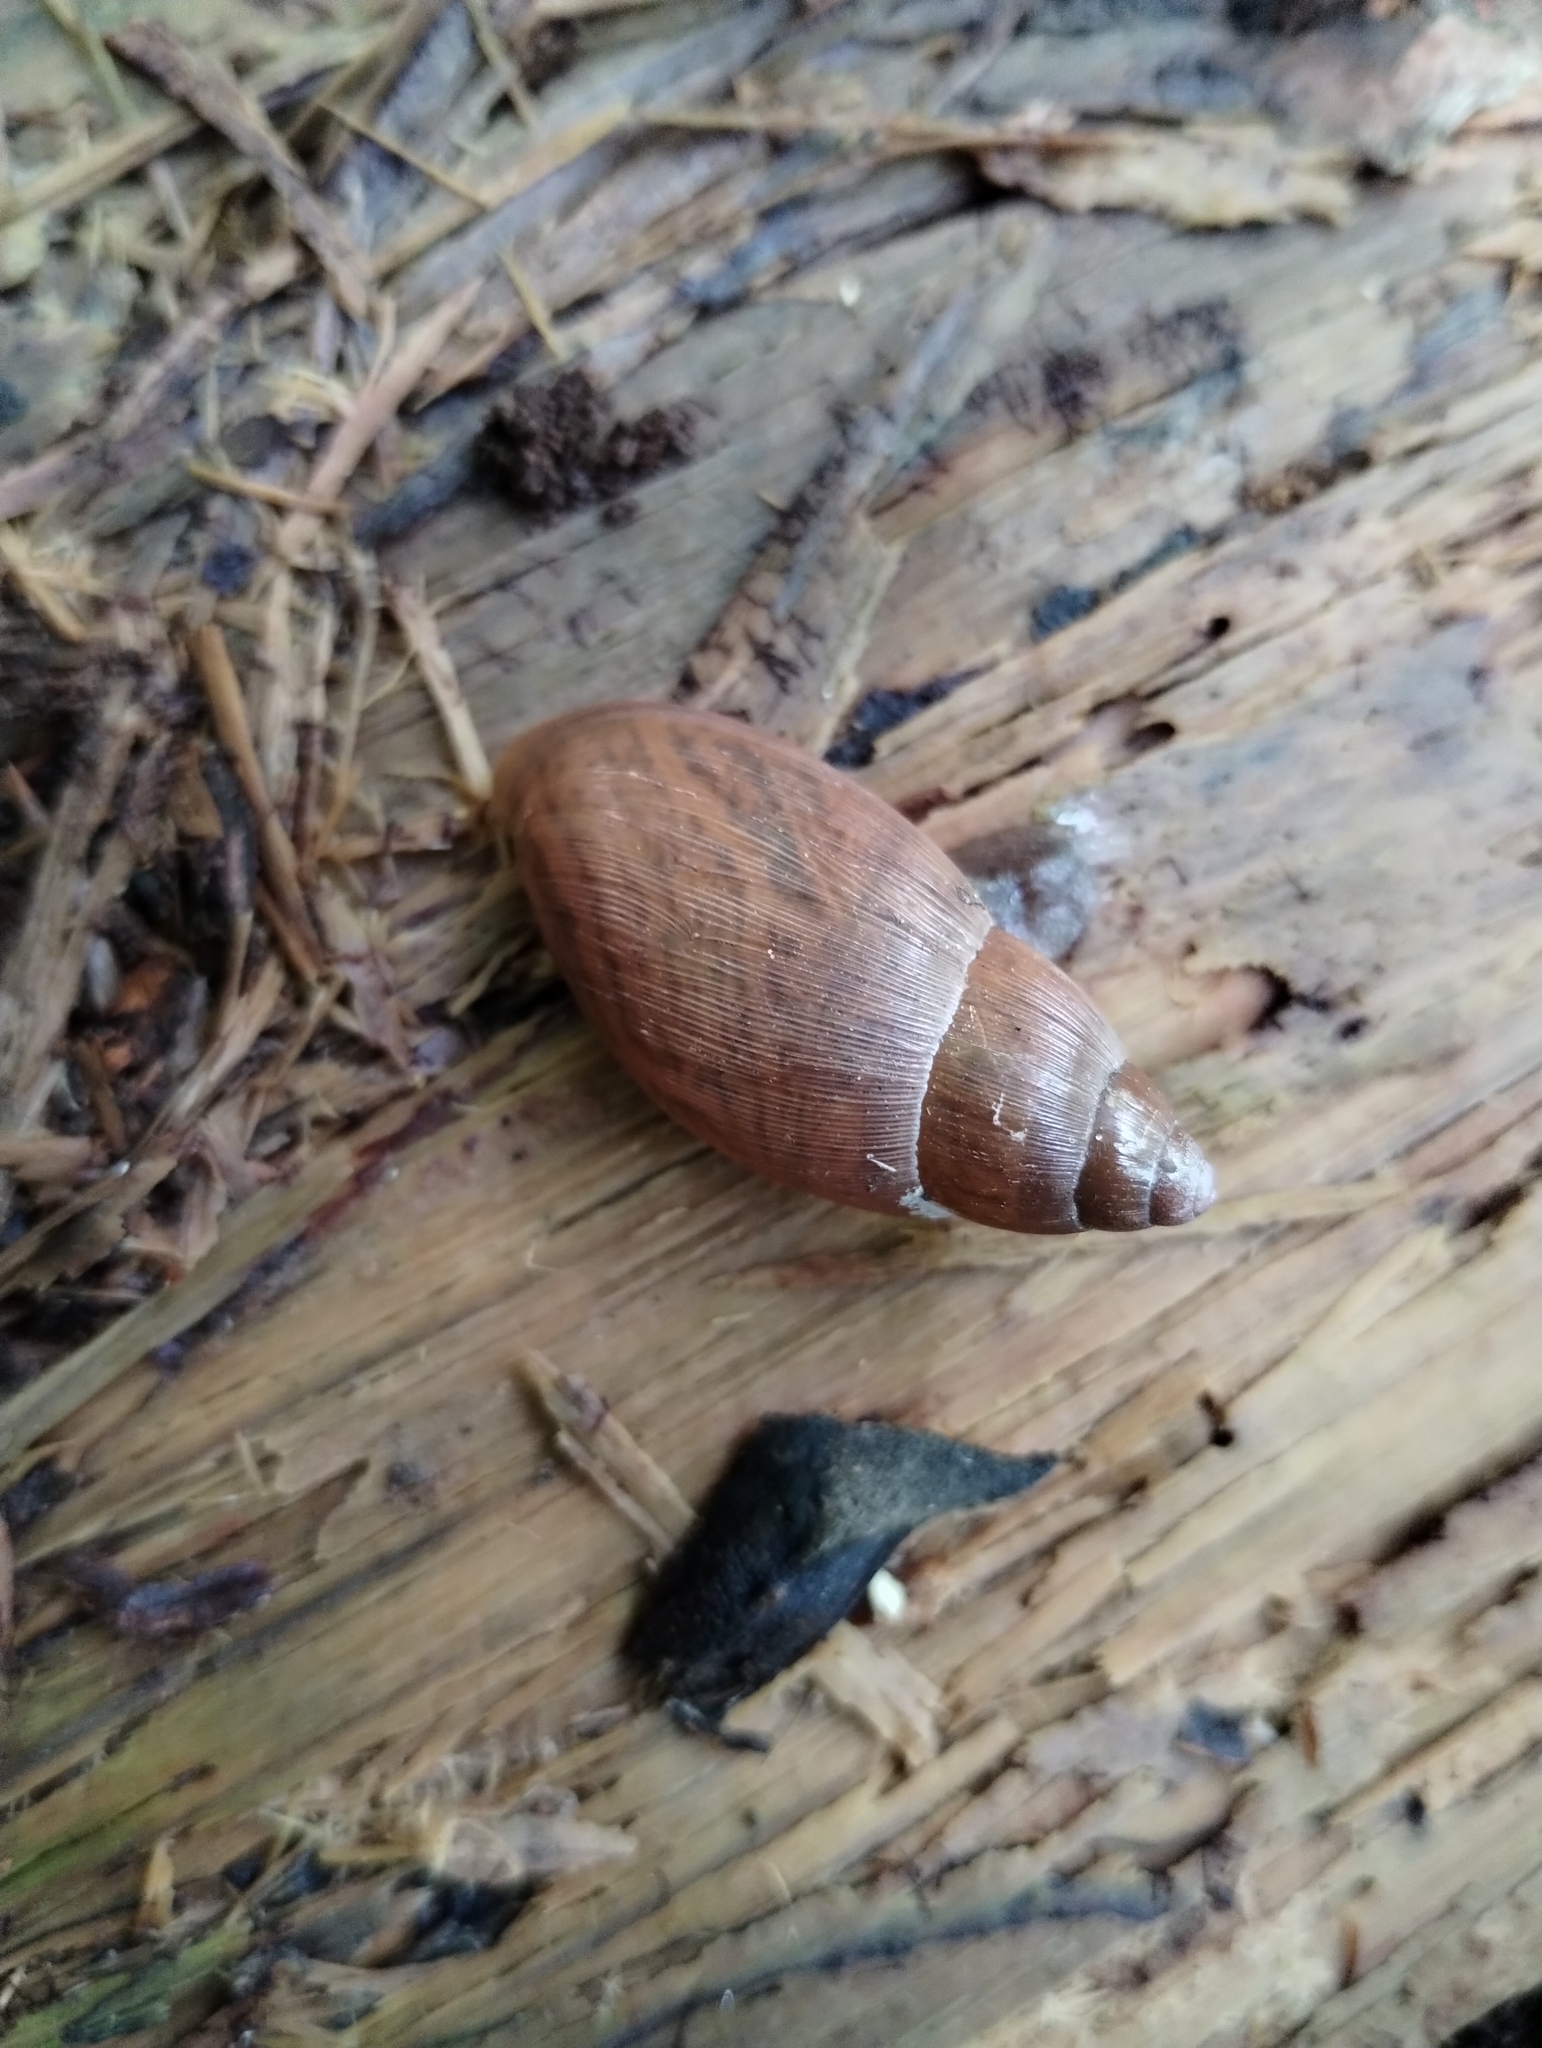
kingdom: Animalia
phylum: Mollusca
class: Gastropoda
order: Stylommatophora
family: Spiraxidae
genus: Euglandina
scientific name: Euglandina rosea
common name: Rosy wolfsnail
